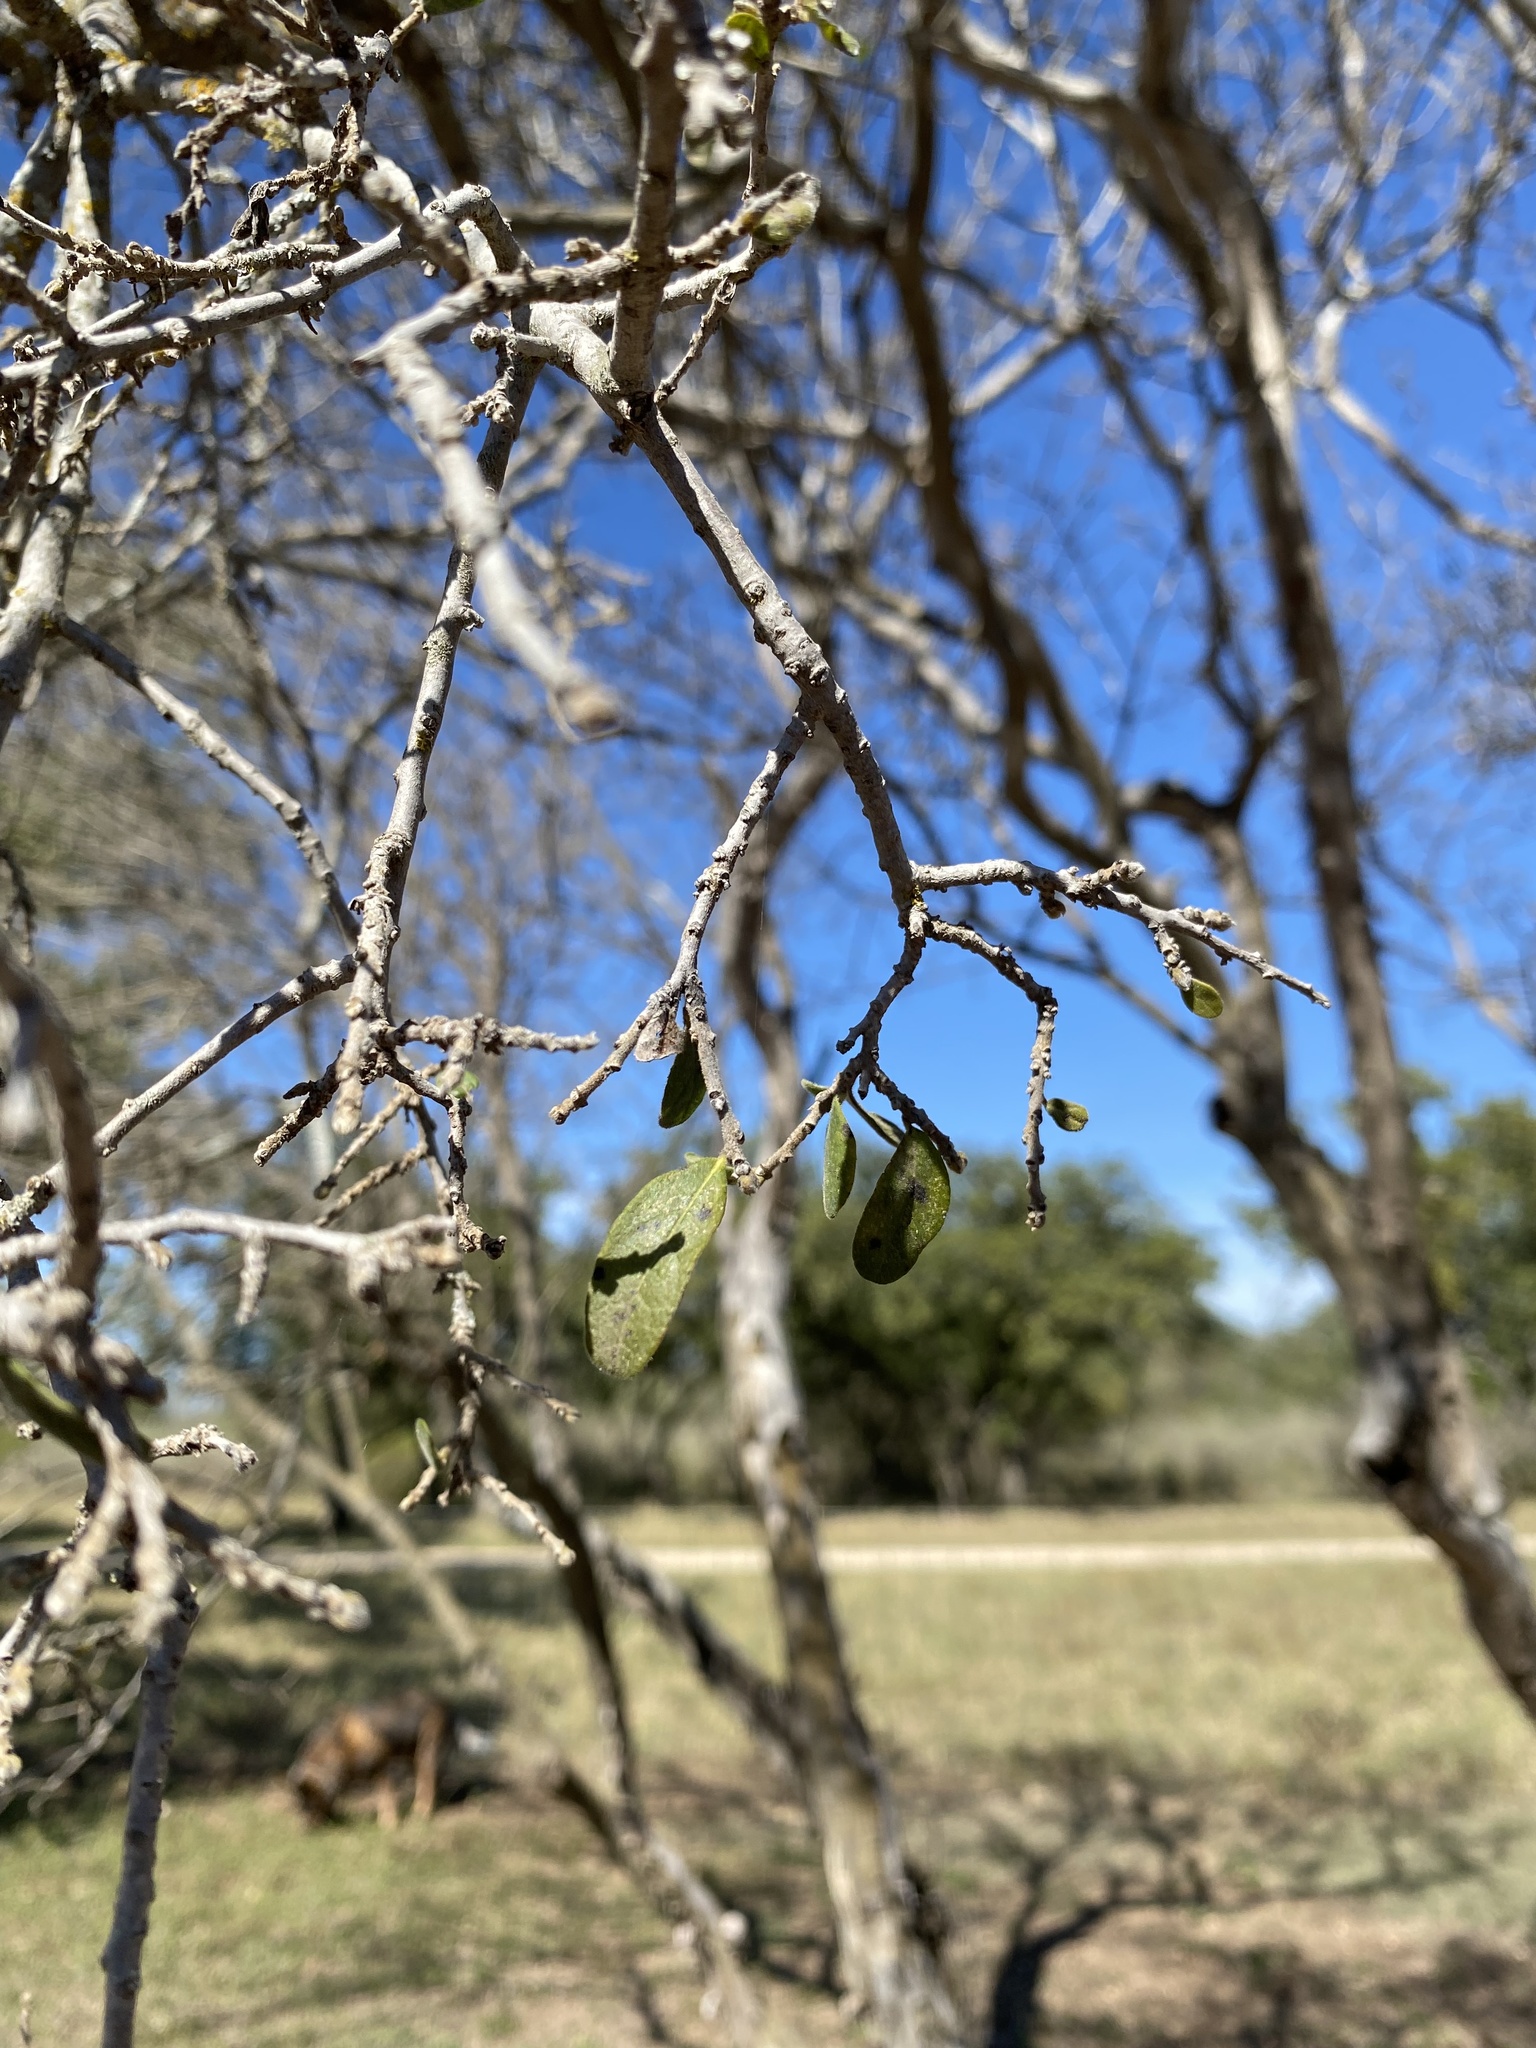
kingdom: Plantae
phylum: Tracheophyta
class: Magnoliopsida
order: Ericales
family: Ebenaceae
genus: Diospyros
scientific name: Diospyros texana
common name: Texas persimmon
